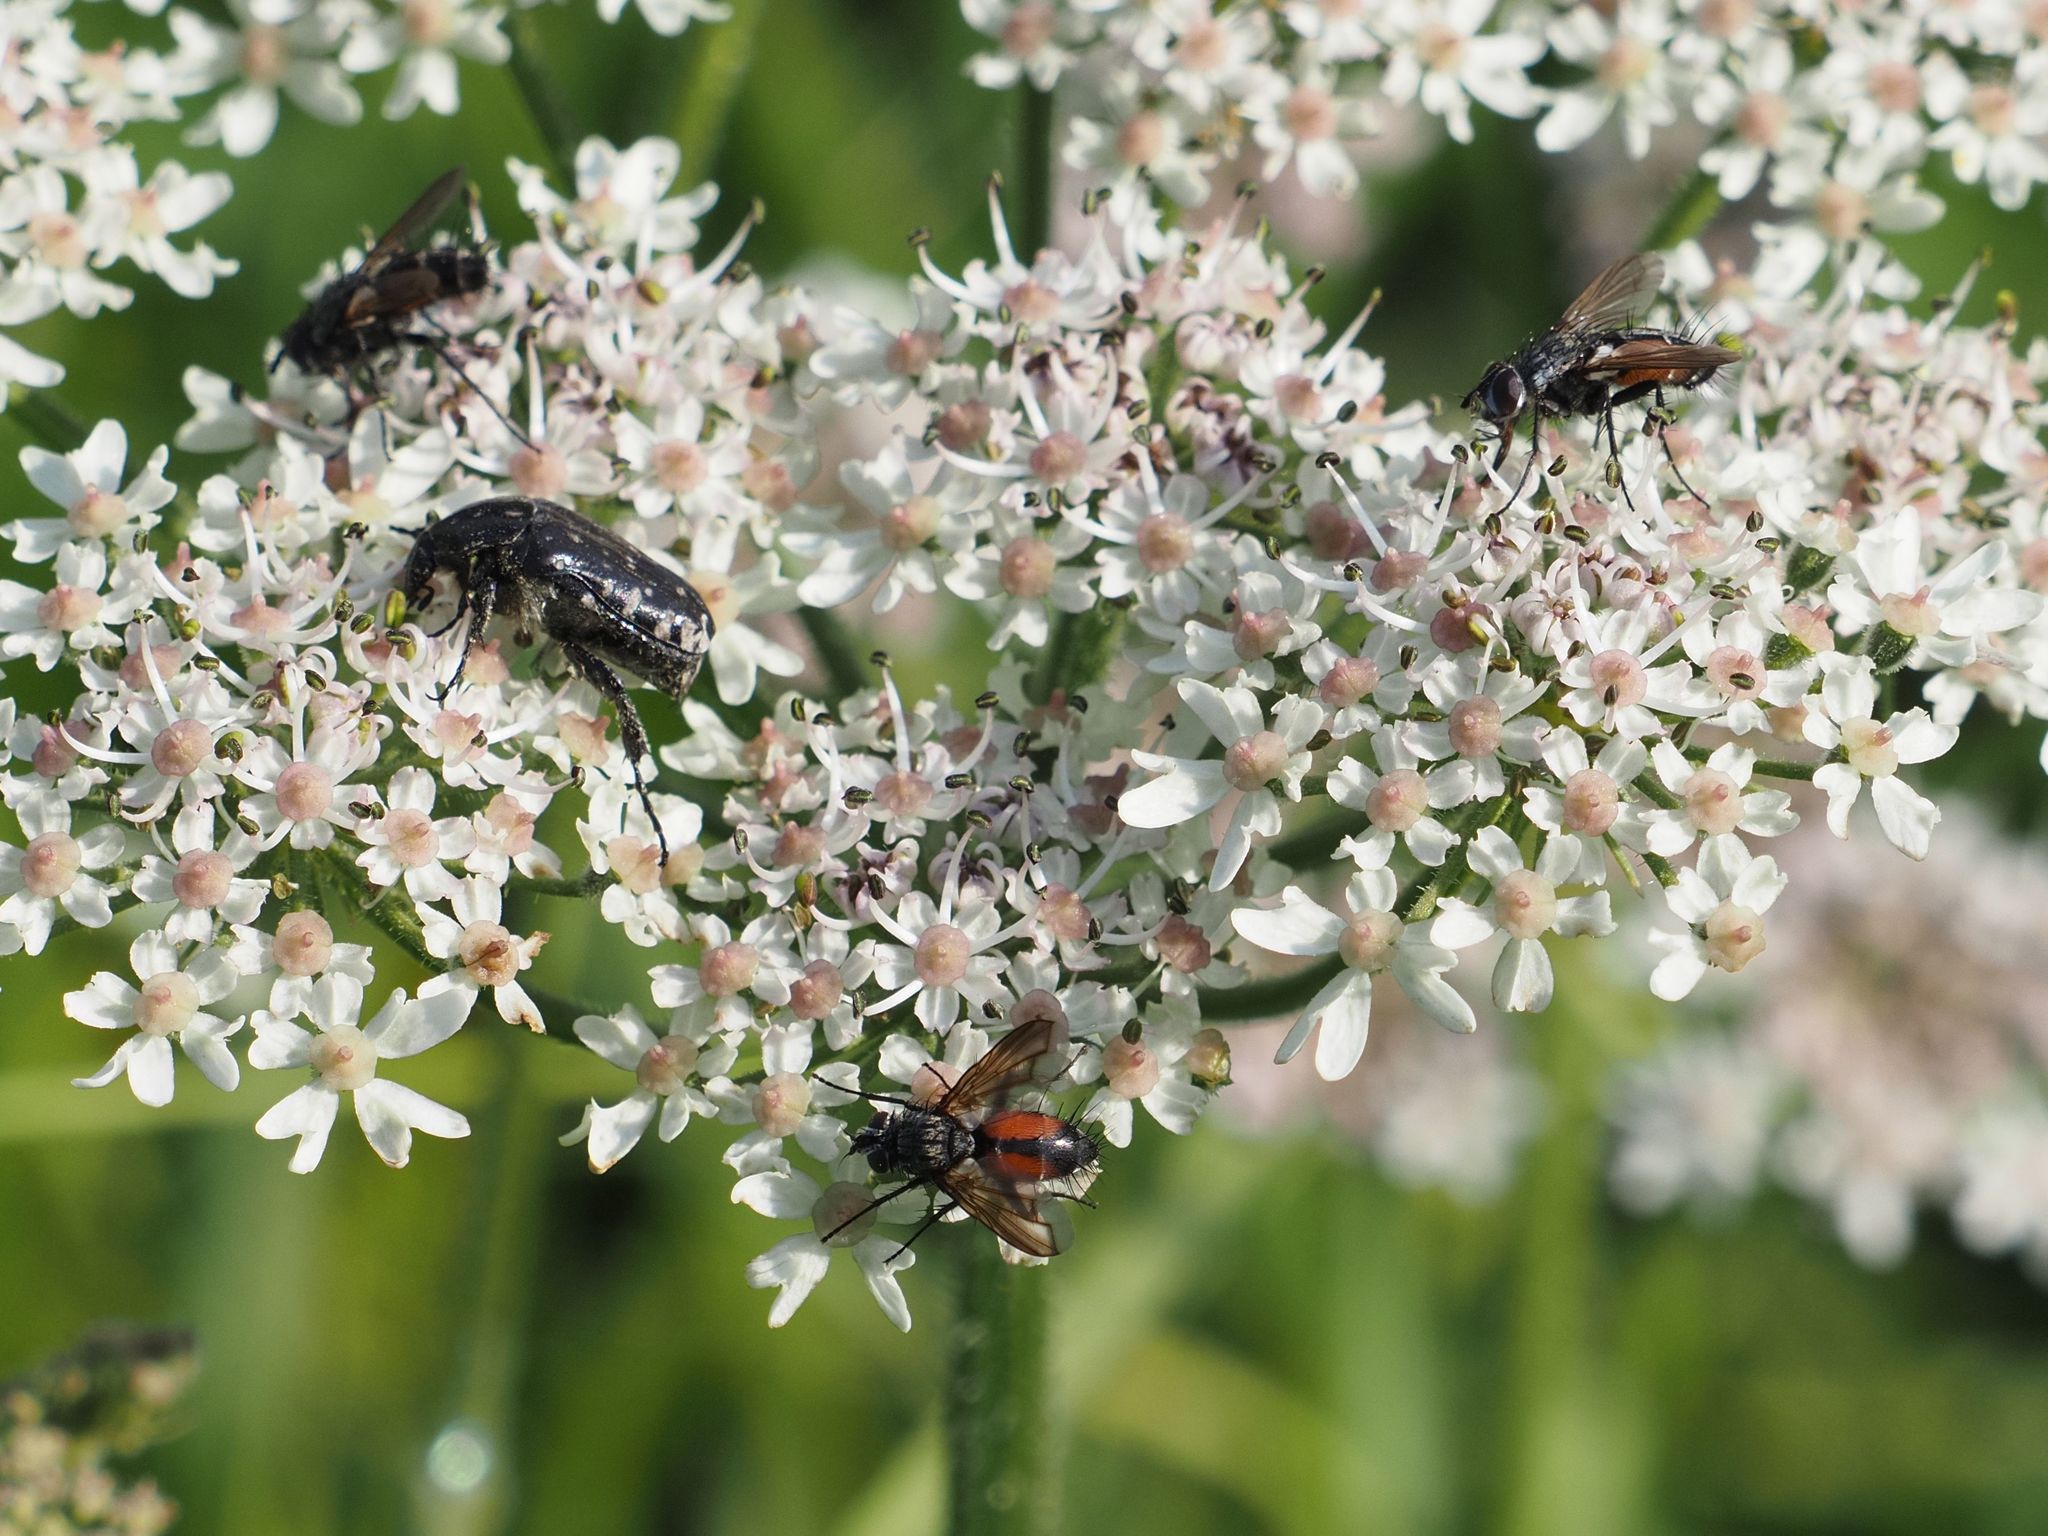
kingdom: Animalia
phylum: Arthropoda
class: Insecta
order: Diptera
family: Tachinidae
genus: Eriothrix
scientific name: Eriothrix rufomaculatus
